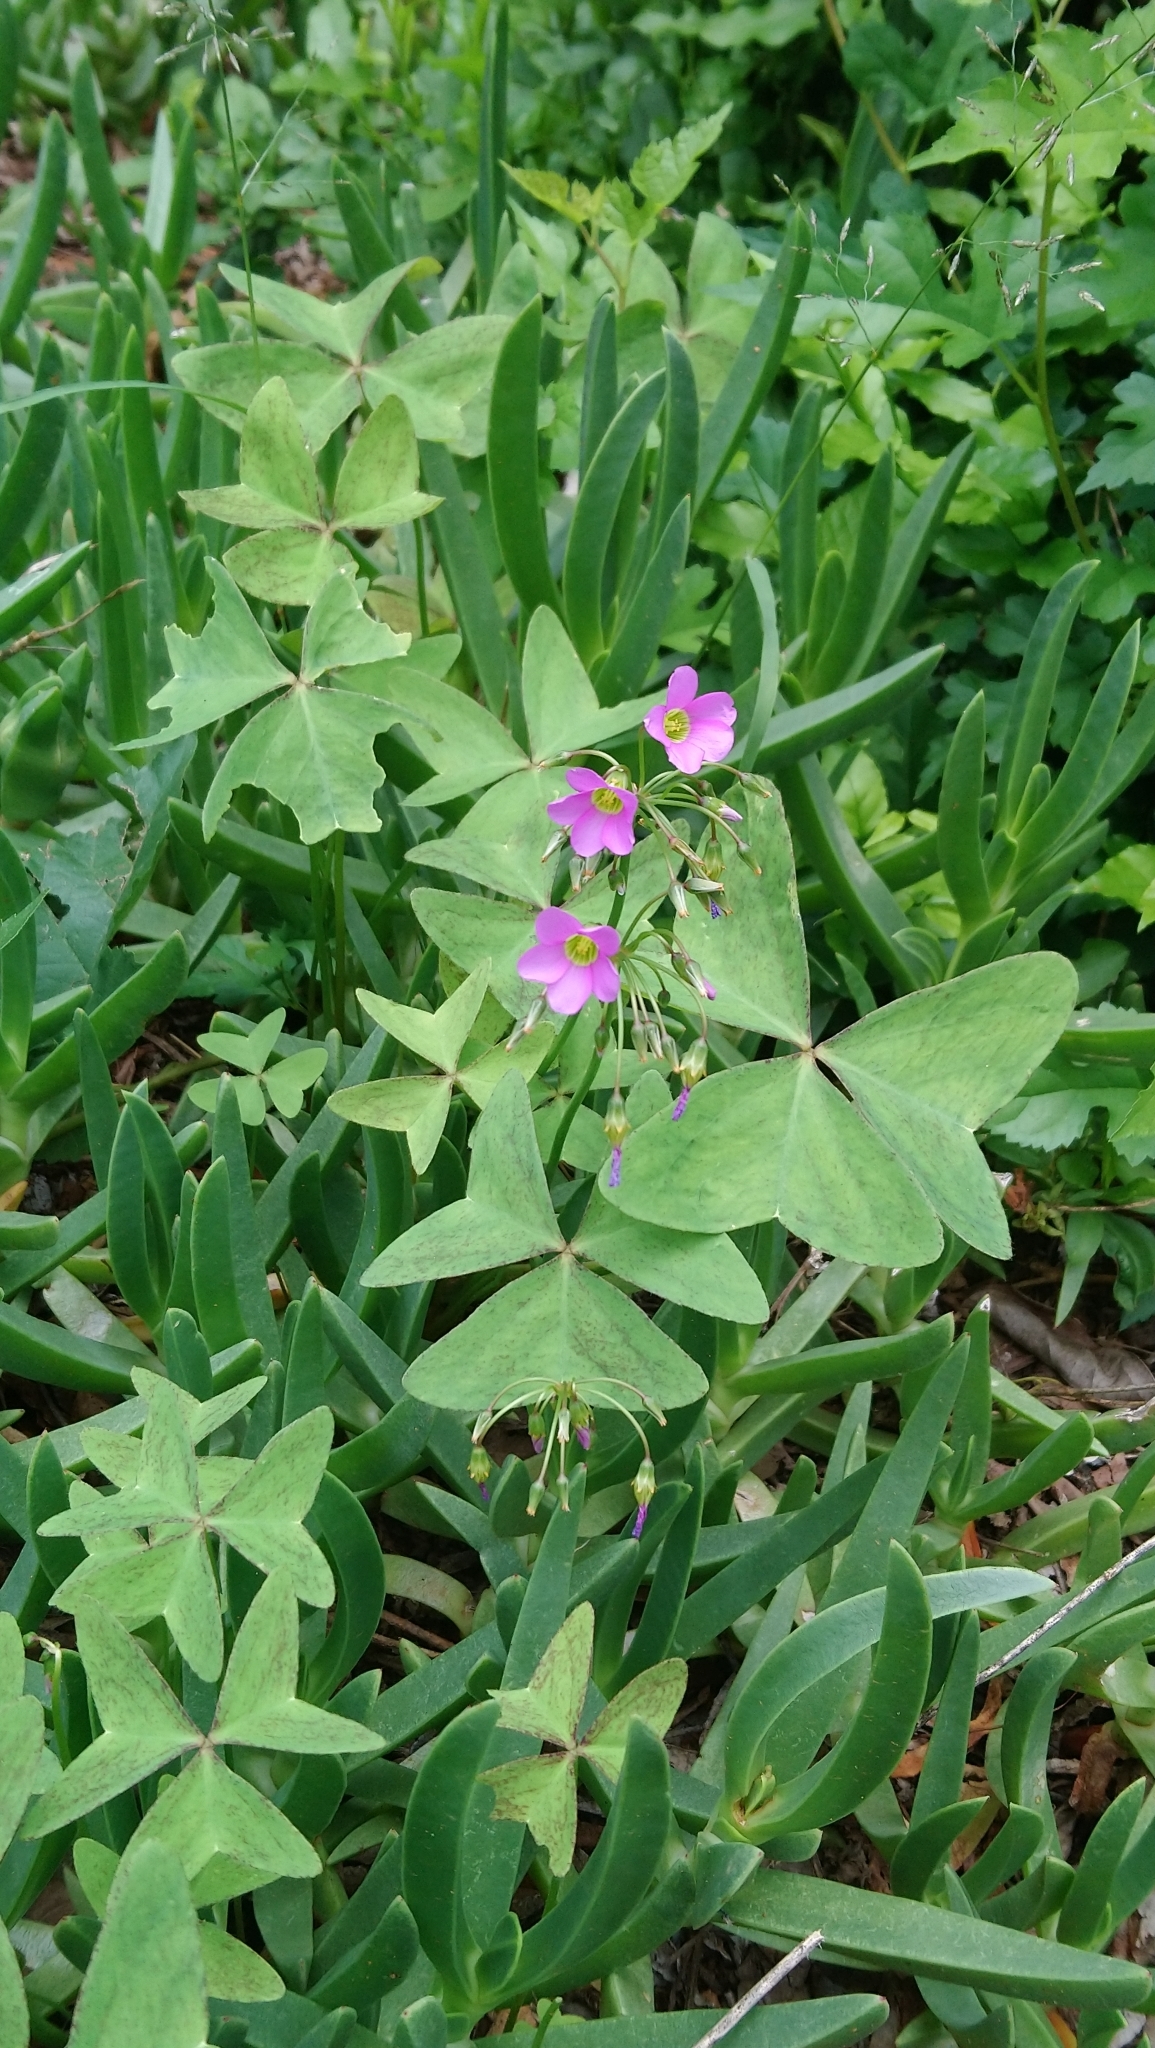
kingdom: Plantae
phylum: Tracheophyta
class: Magnoliopsida
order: Oxalidales
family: Oxalidaceae
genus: Oxalis
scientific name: Oxalis latifolia
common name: Garden pink-sorrel
